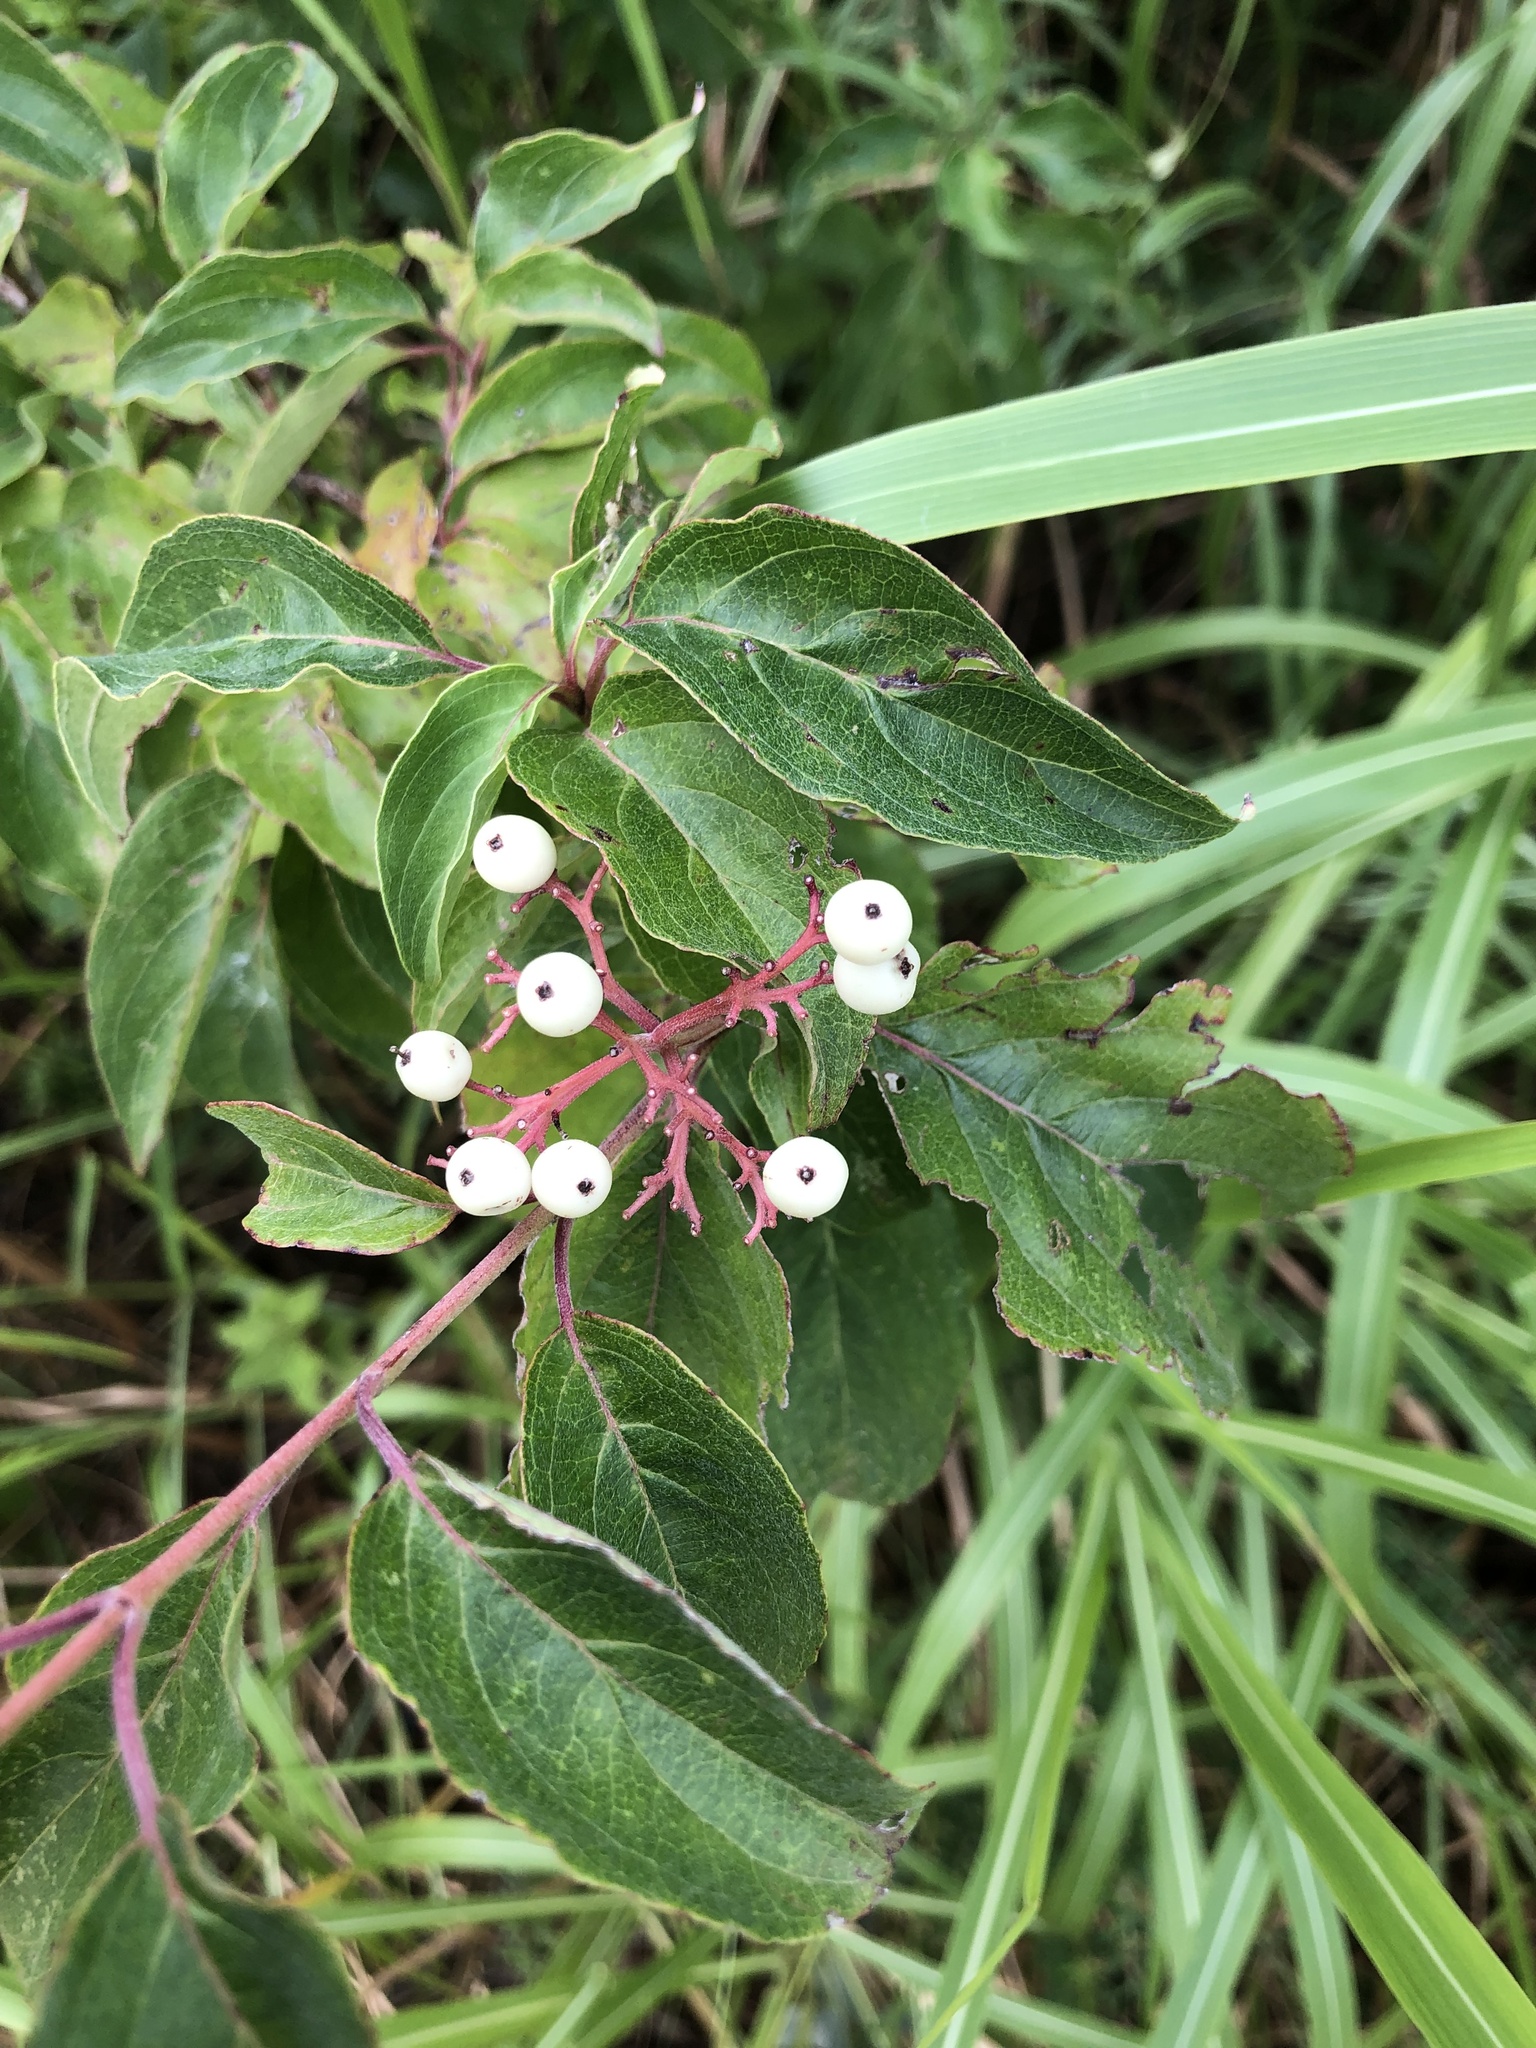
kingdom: Plantae
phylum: Tracheophyta
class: Magnoliopsida
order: Cornales
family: Cornaceae
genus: Cornus
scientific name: Cornus drummondii
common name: Rough-leaf dogwood
